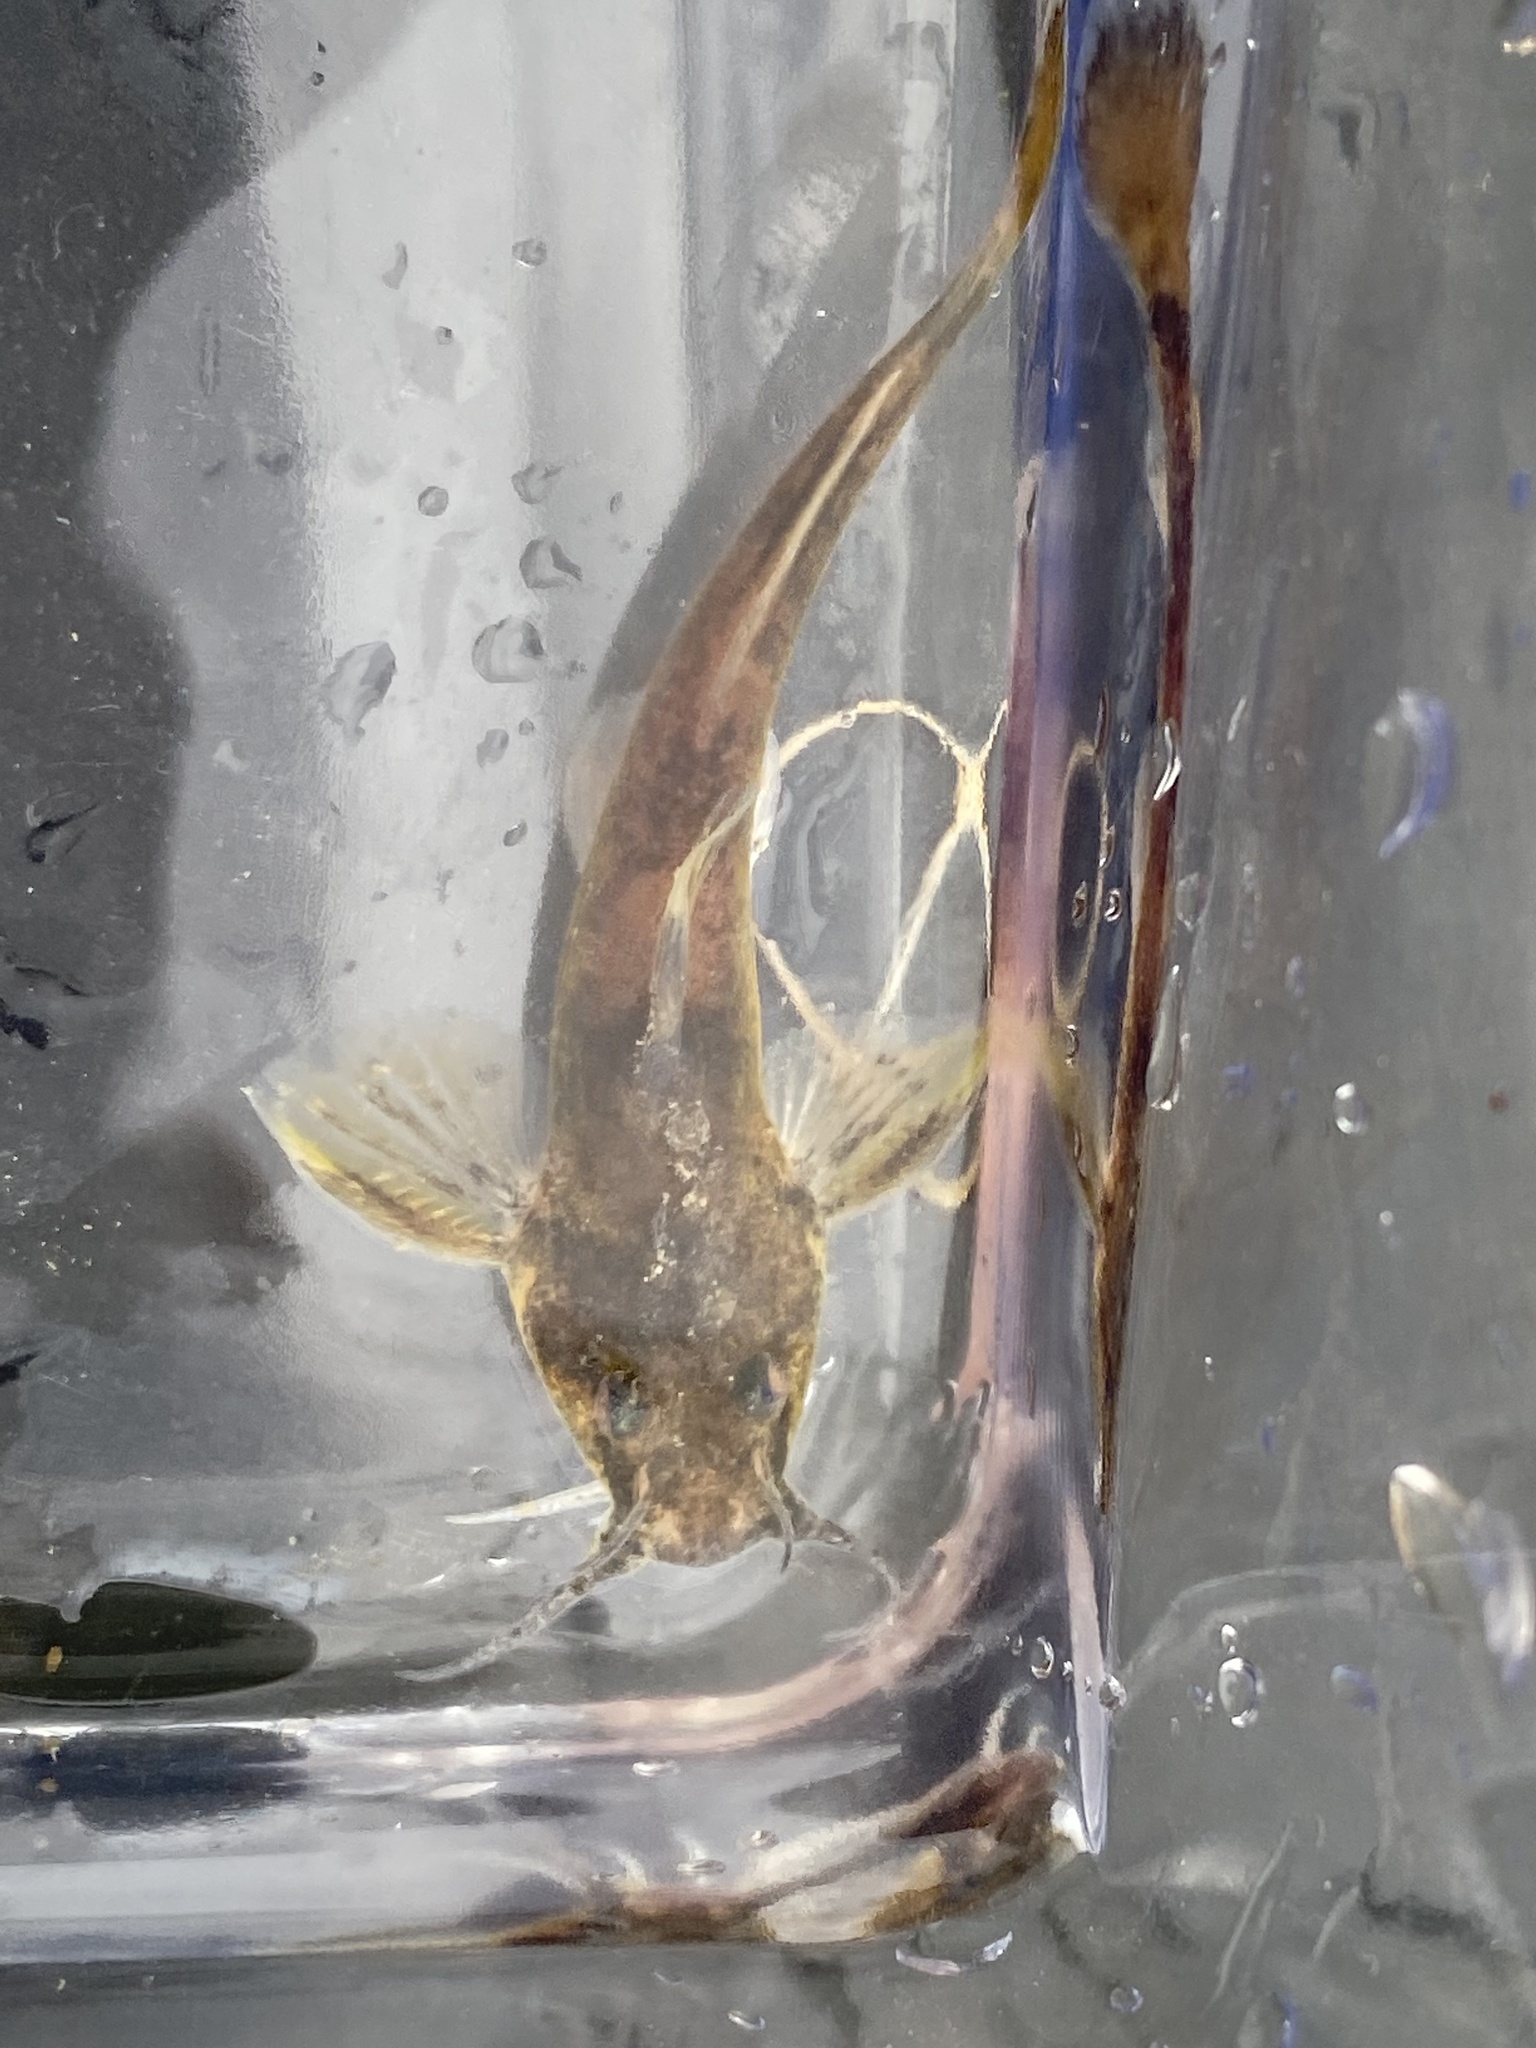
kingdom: Animalia
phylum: Chordata
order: Siluriformes
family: Ictaluridae
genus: Noturus
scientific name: Noturus eleutherus
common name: Mountain madtom
